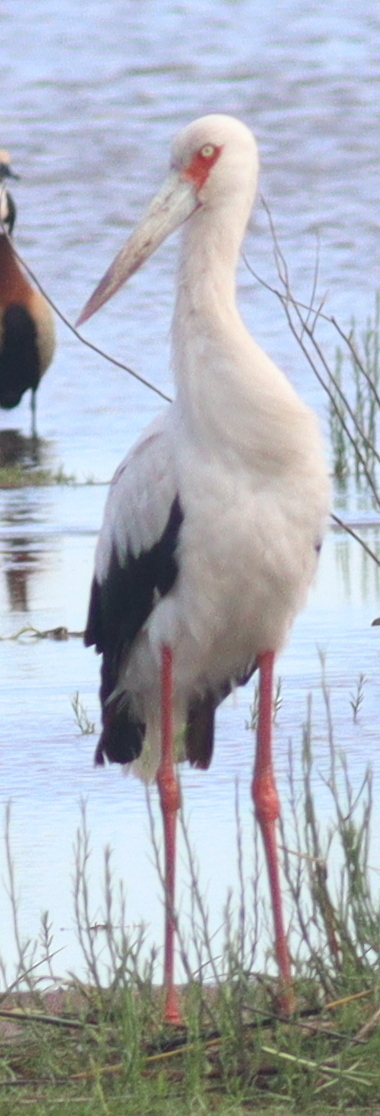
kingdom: Animalia
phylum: Chordata
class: Aves
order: Ciconiiformes
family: Ciconiidae
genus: Ciconia
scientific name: Ciconia maguari
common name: Maguari stork
